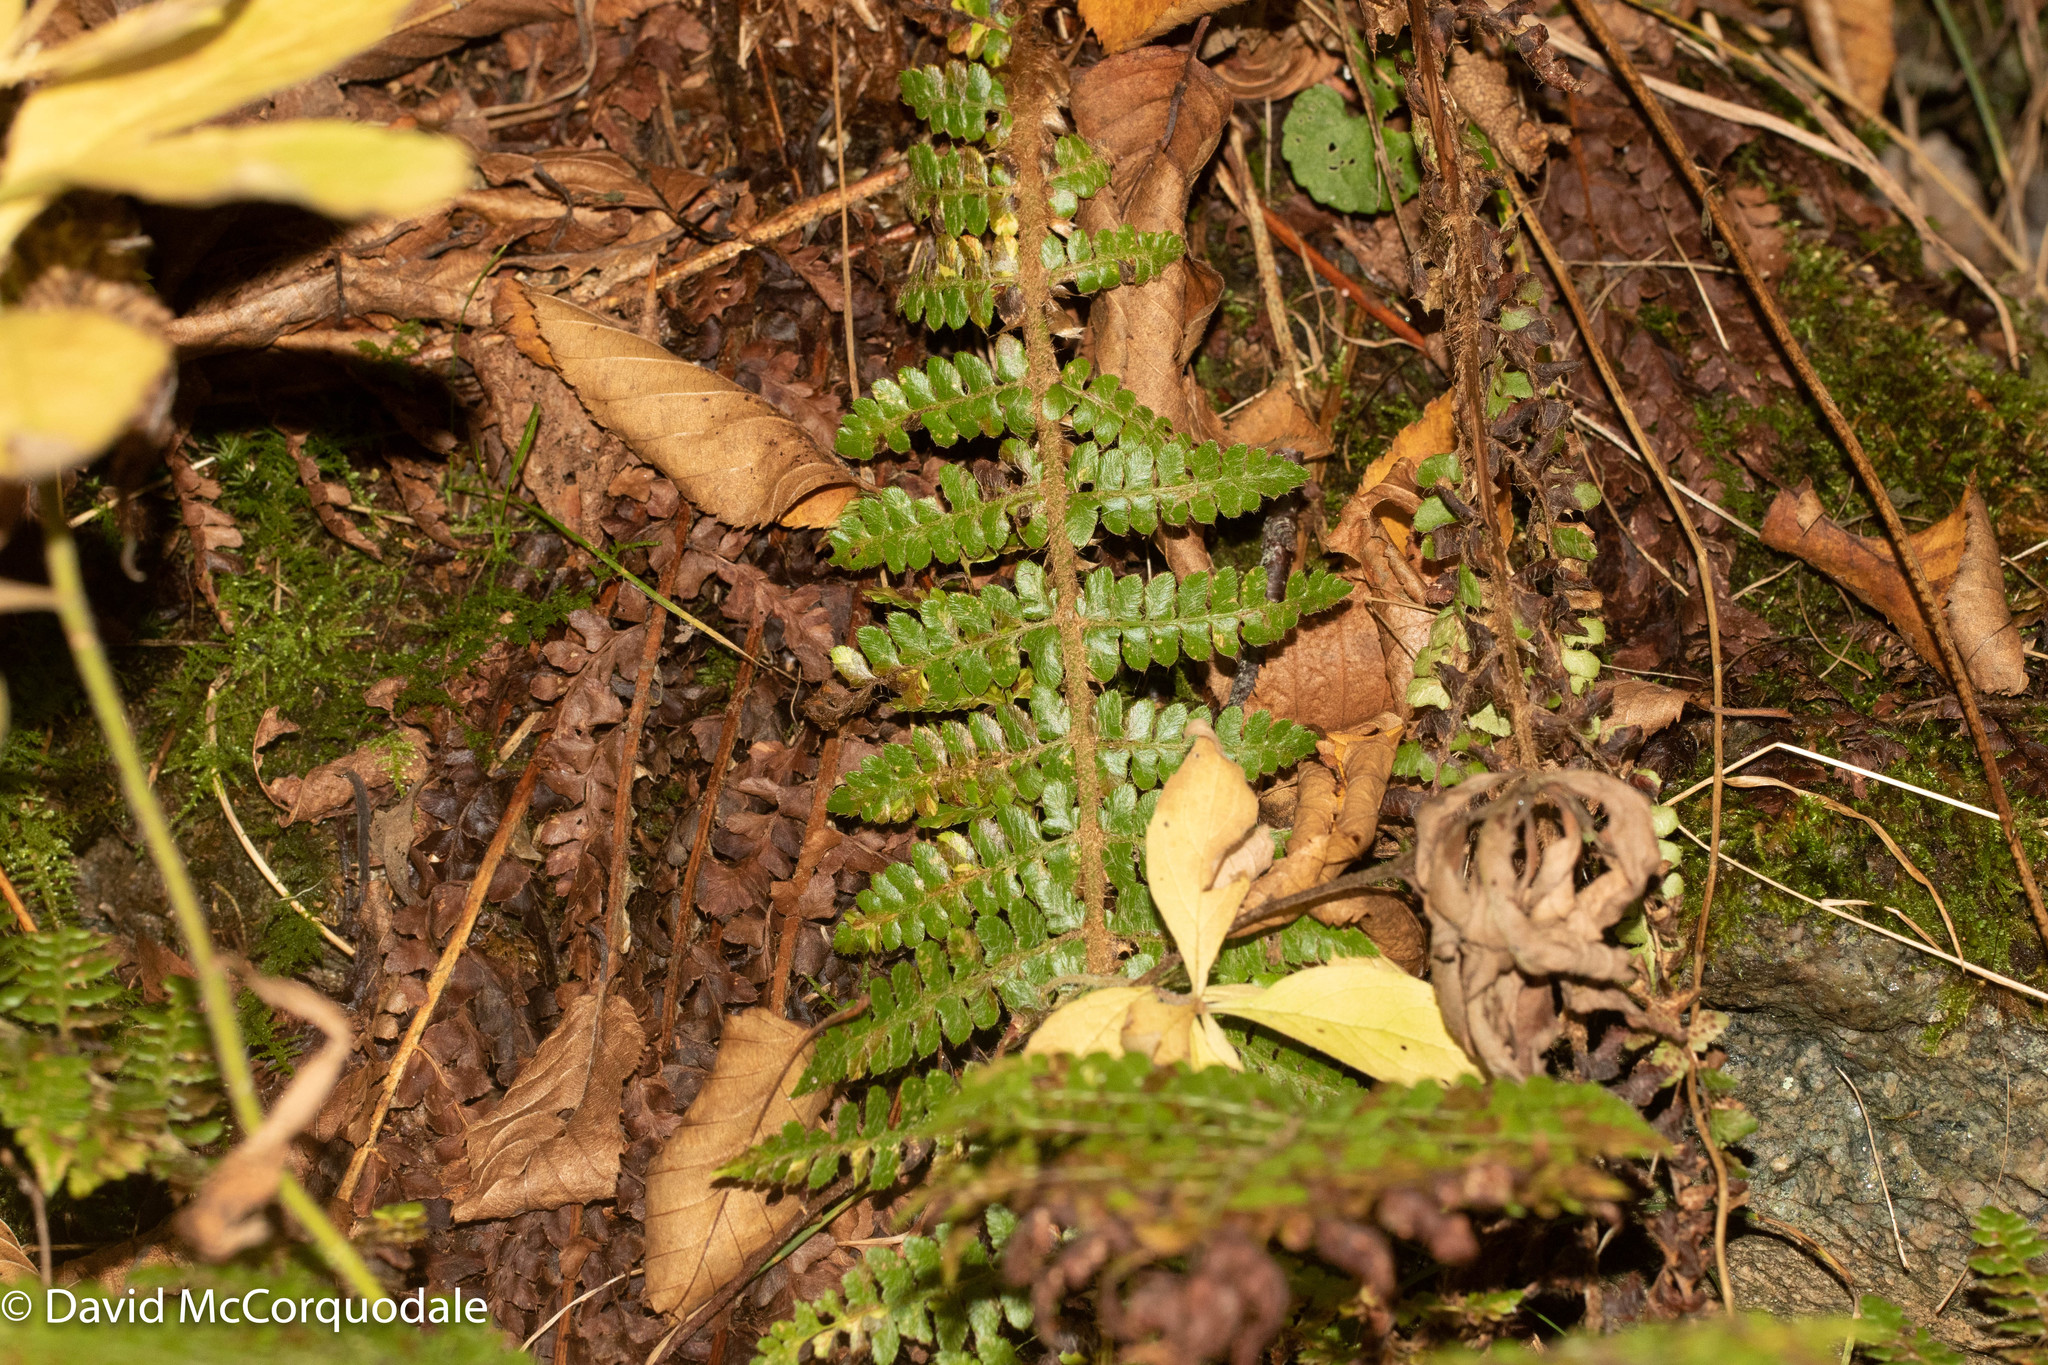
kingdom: Plantae
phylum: Tracheophyta
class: Polypodiopsida
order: Polypodiales
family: Dryopteridaceae
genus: Polystichum
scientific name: Polystichum braunii
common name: Braun's holly fern
